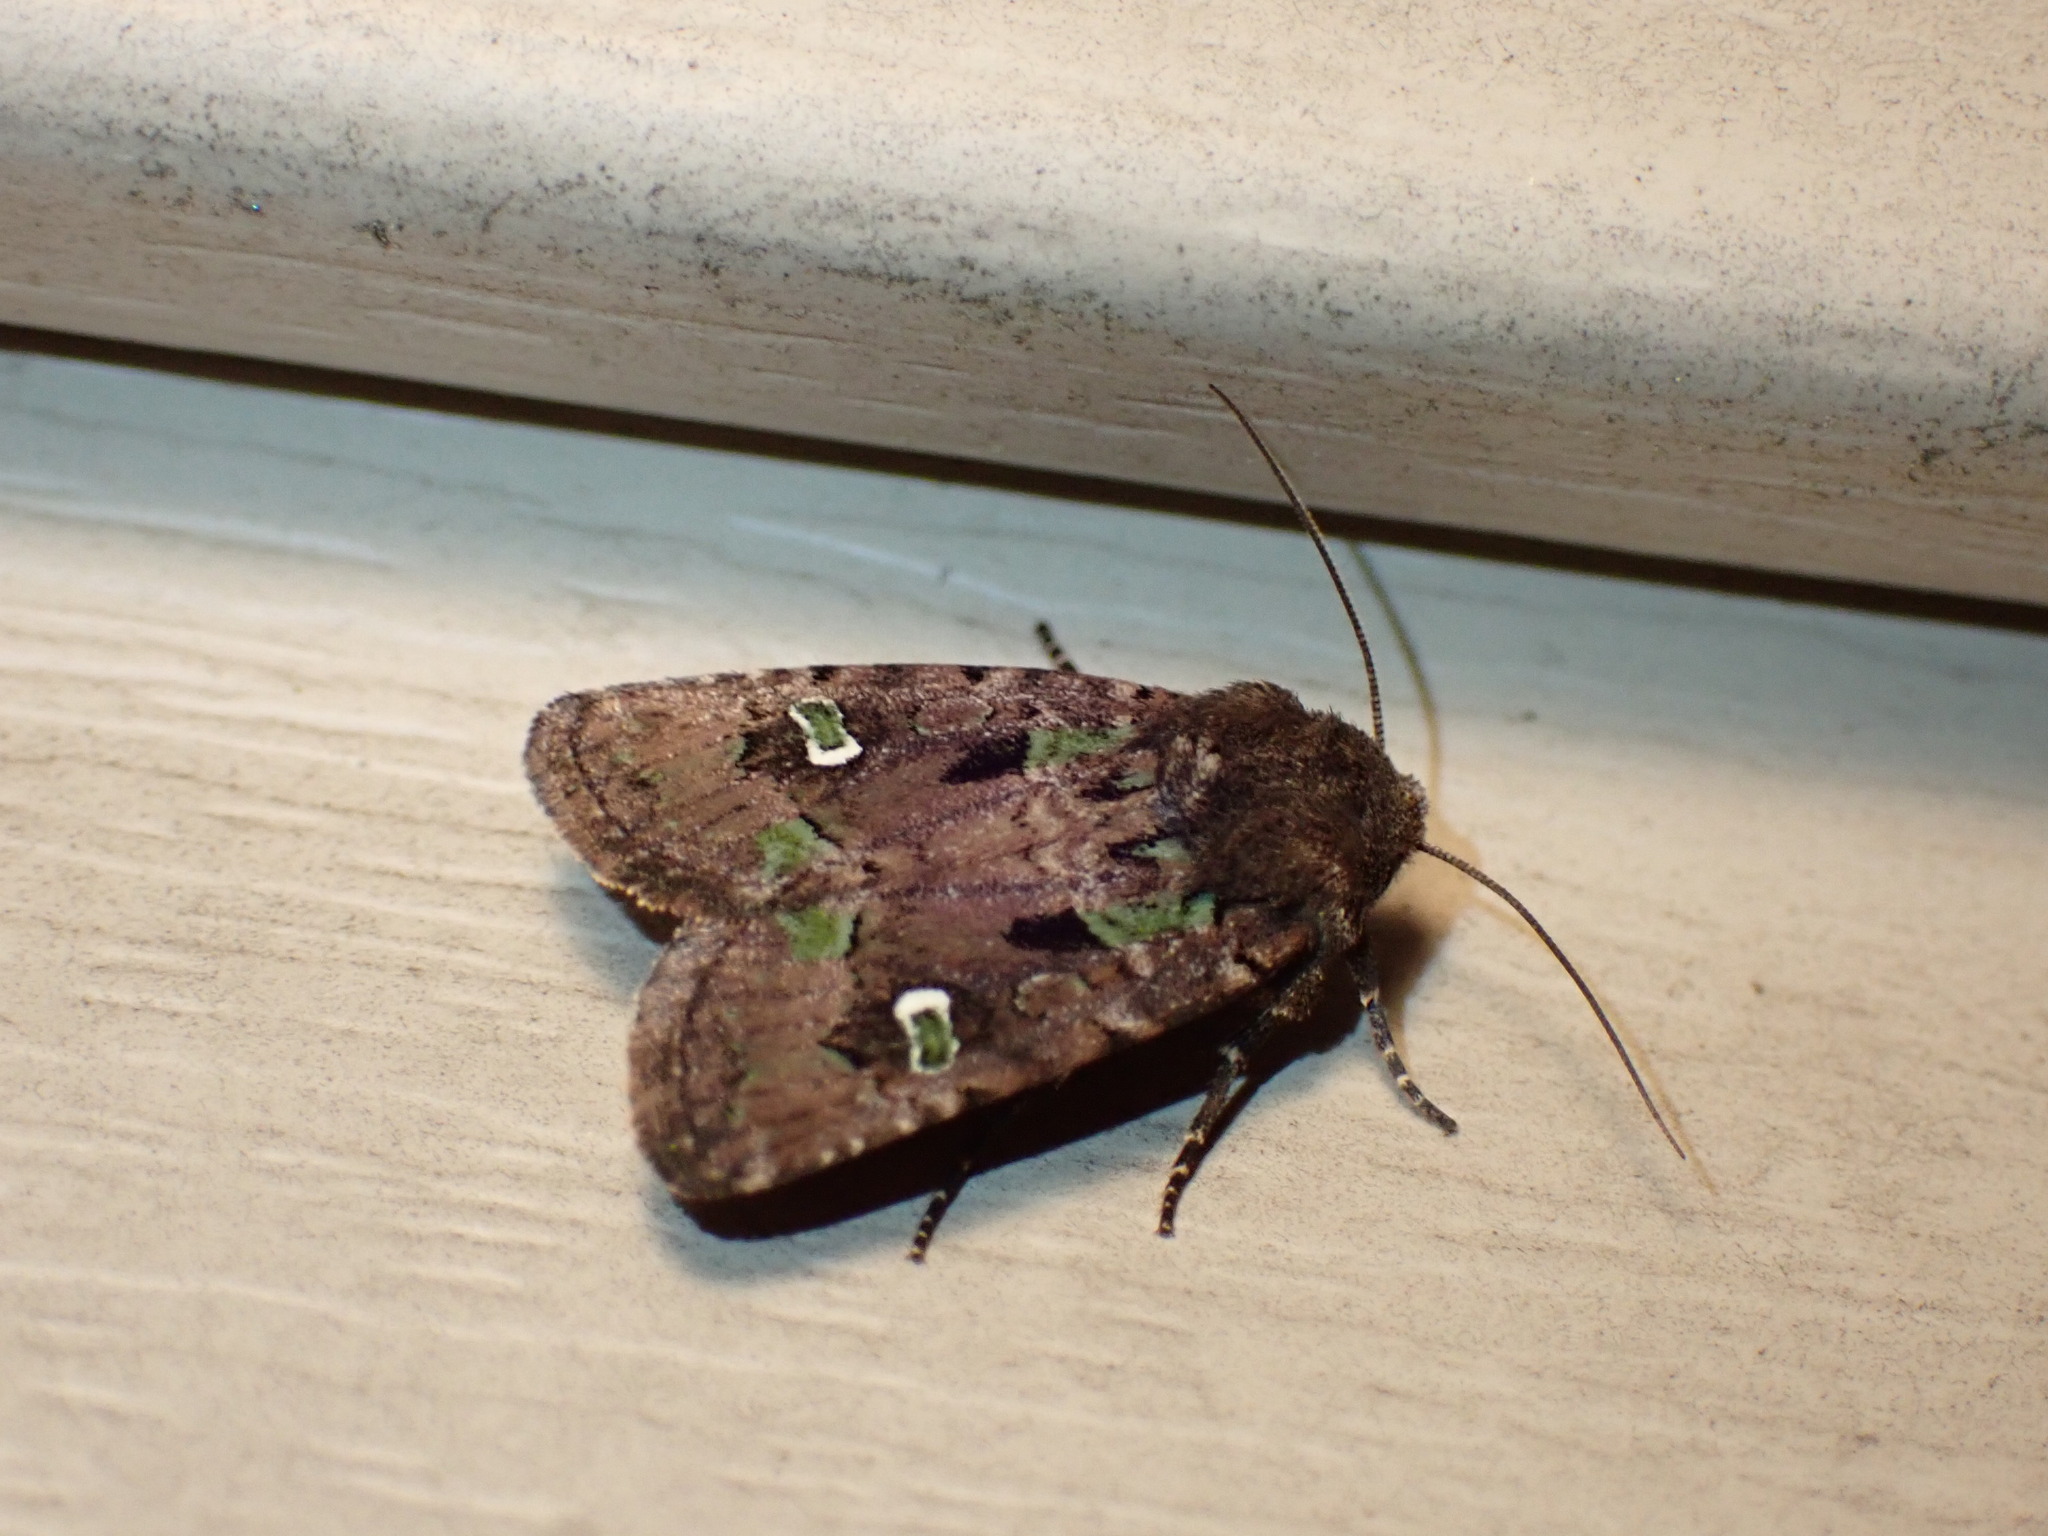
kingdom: Animalia
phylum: Arthropoda
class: Insecta
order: Lepidoptera
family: Noctuidae
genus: Lacinipolia
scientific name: Lacinipolia renigera
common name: Kidney-spotted minor
